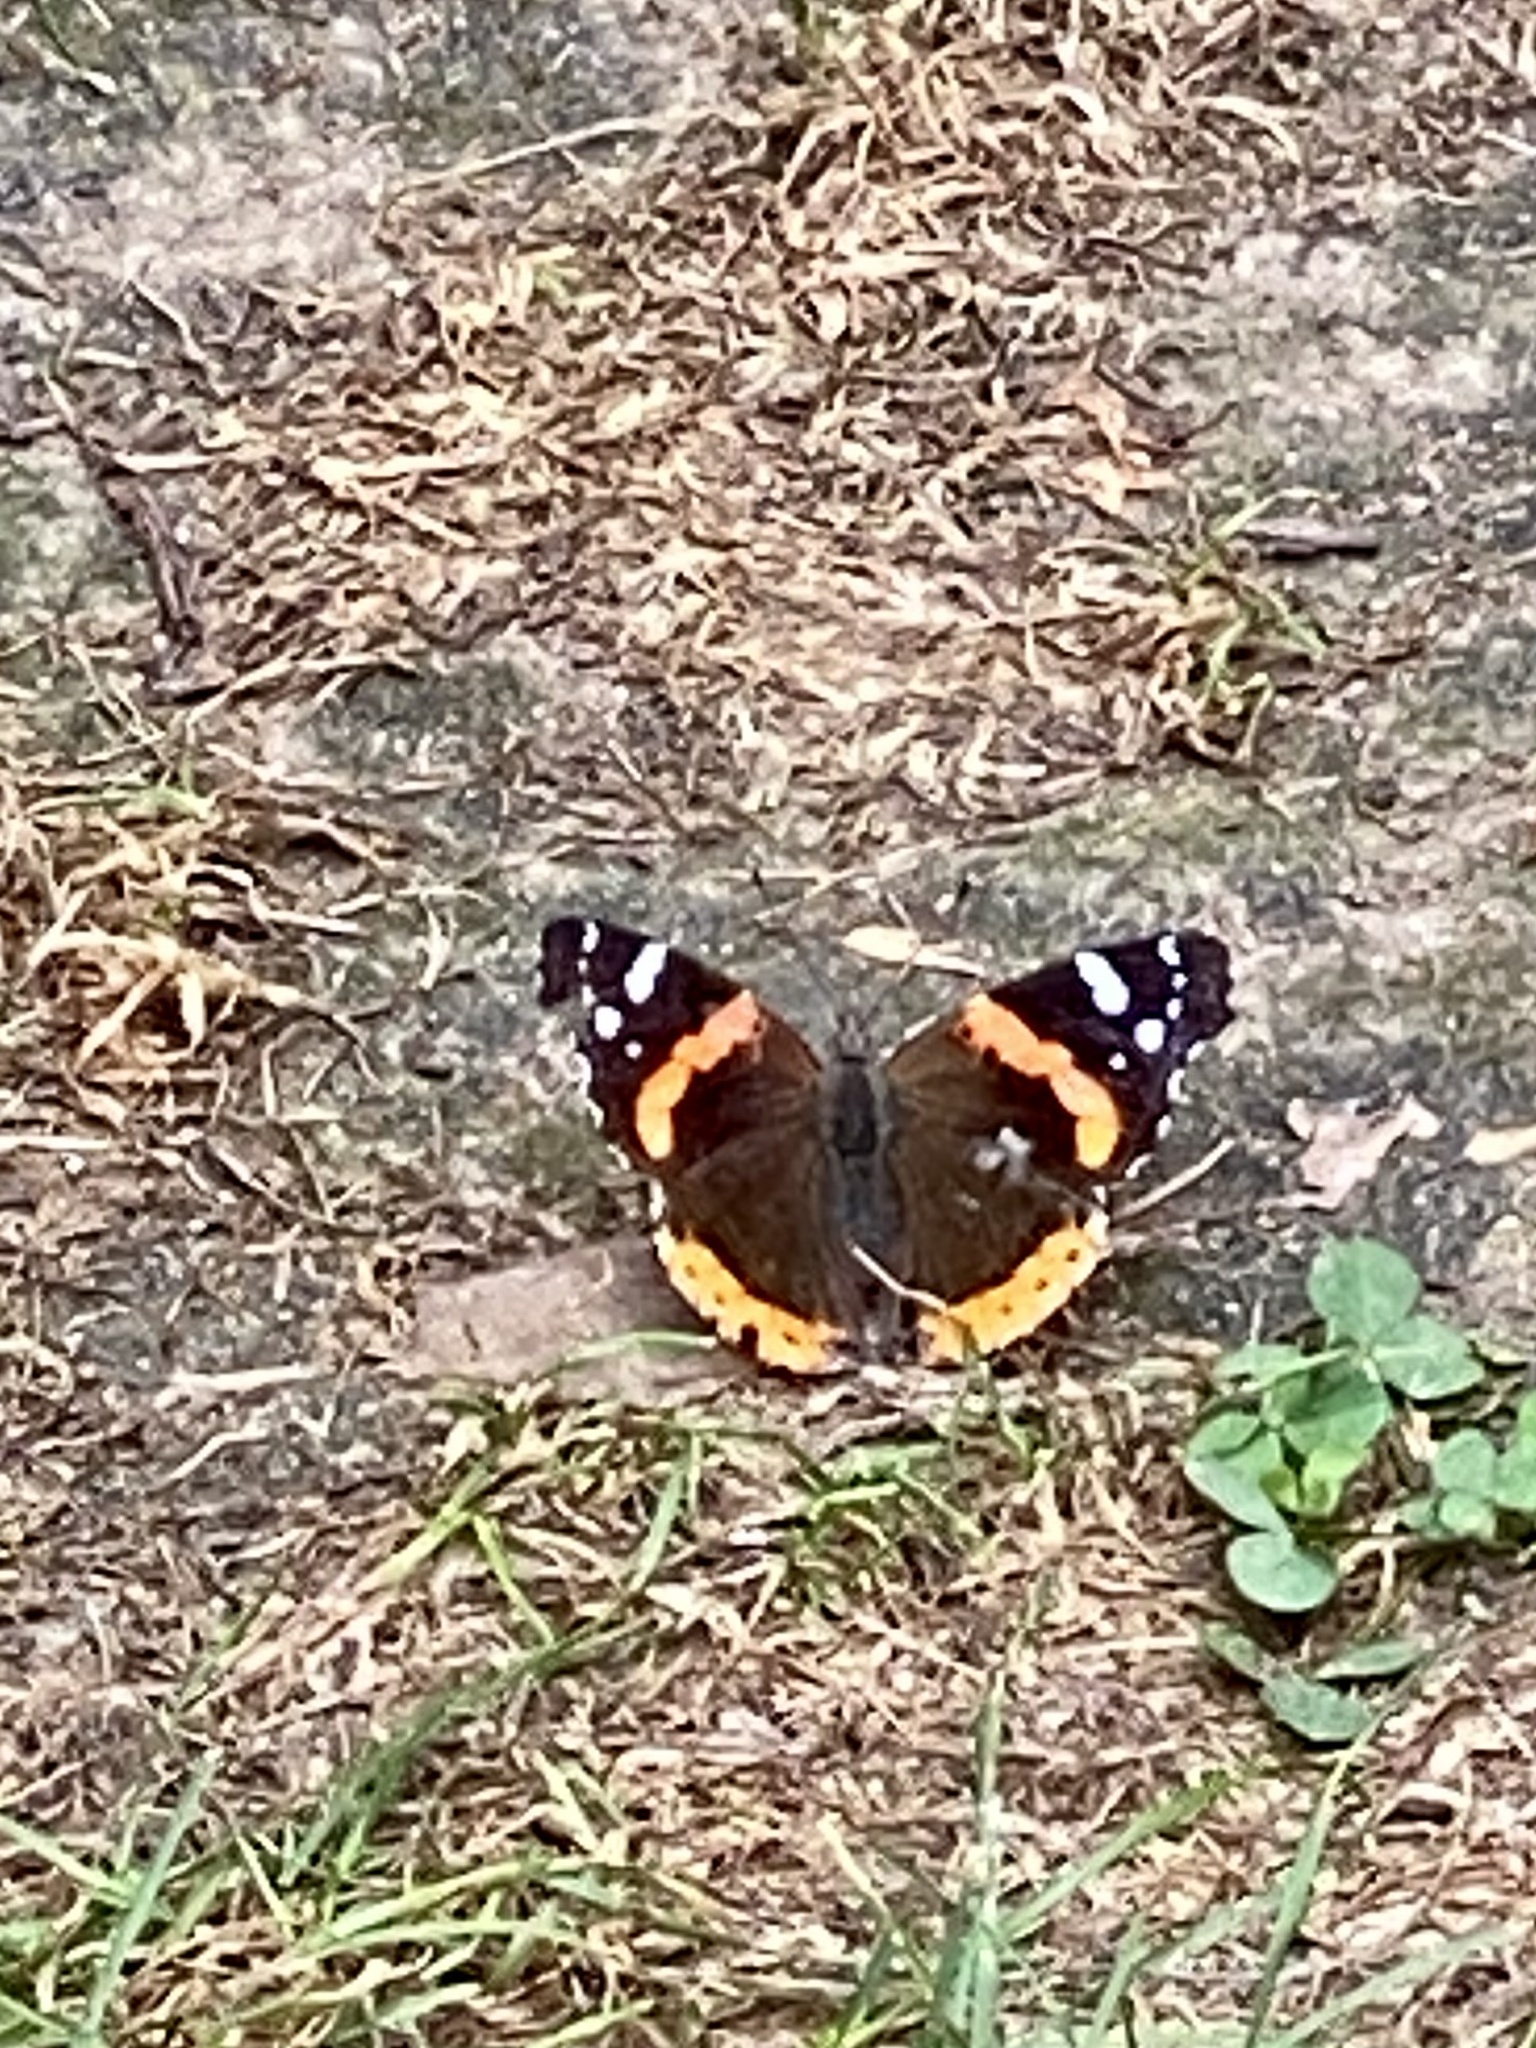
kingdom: Animalia
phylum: Arthropoda
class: Insecta
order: Lepidoptera
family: Nymphalidae
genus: Vanessa
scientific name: Vanessa atalanta
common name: Red admiral
